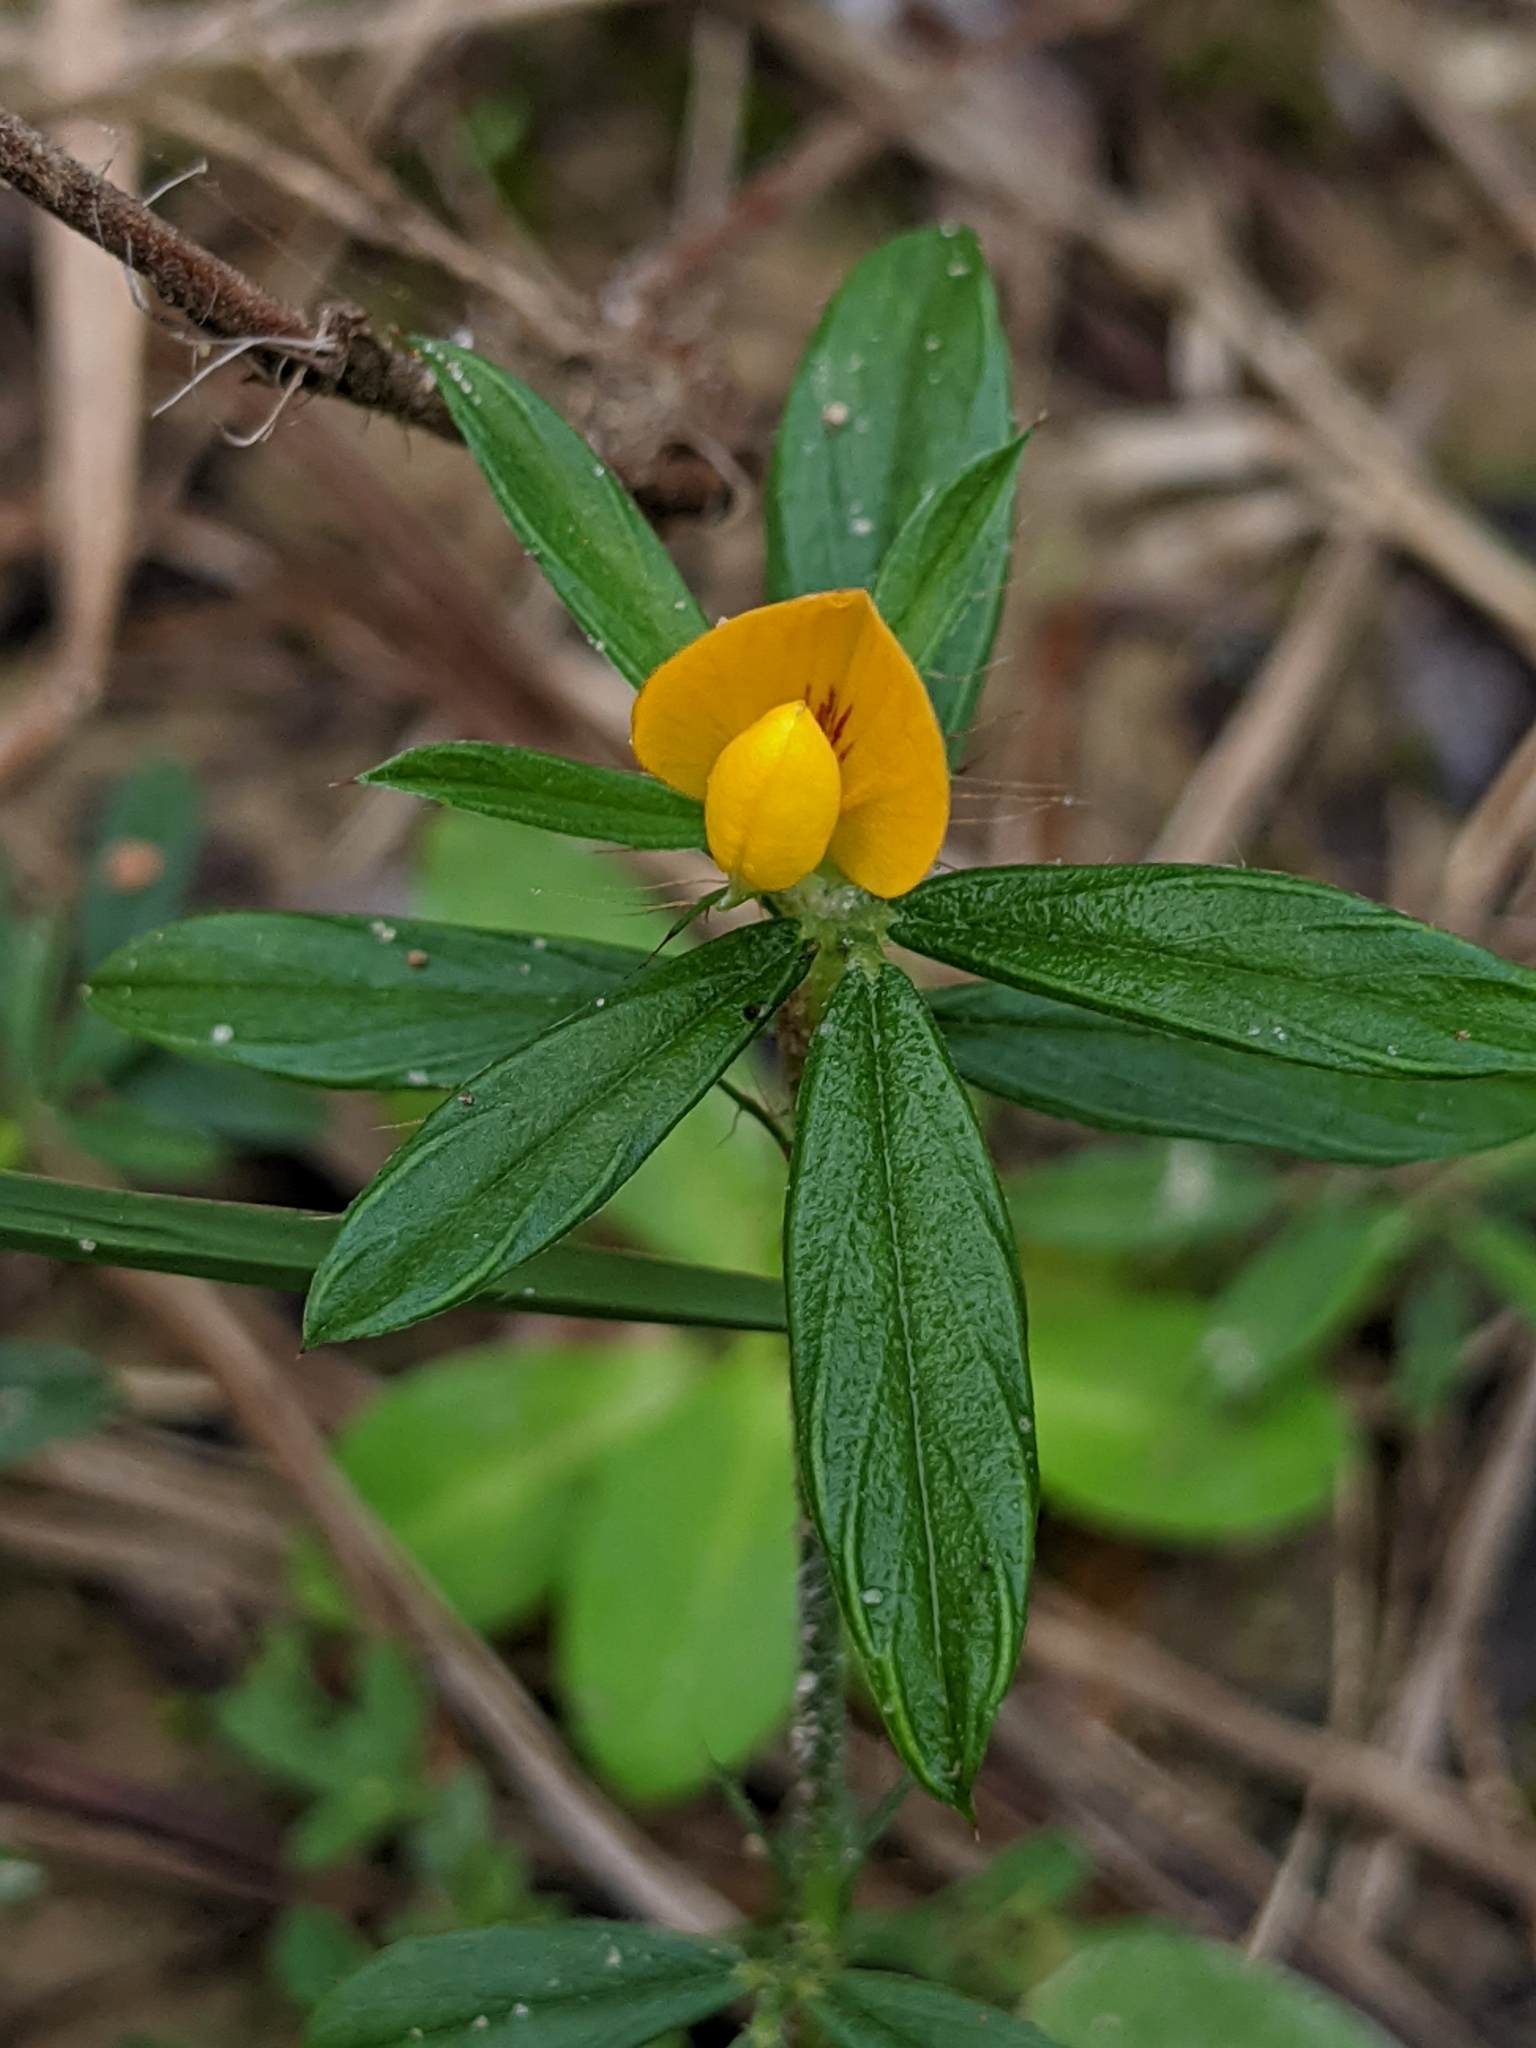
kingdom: Plantae
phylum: Tracheophyta
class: Magnoliopsida
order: Fabales
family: Fabaceae
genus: Stylosanthes
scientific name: Stylosanthes biflora
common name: Two-flower pencil-flower
